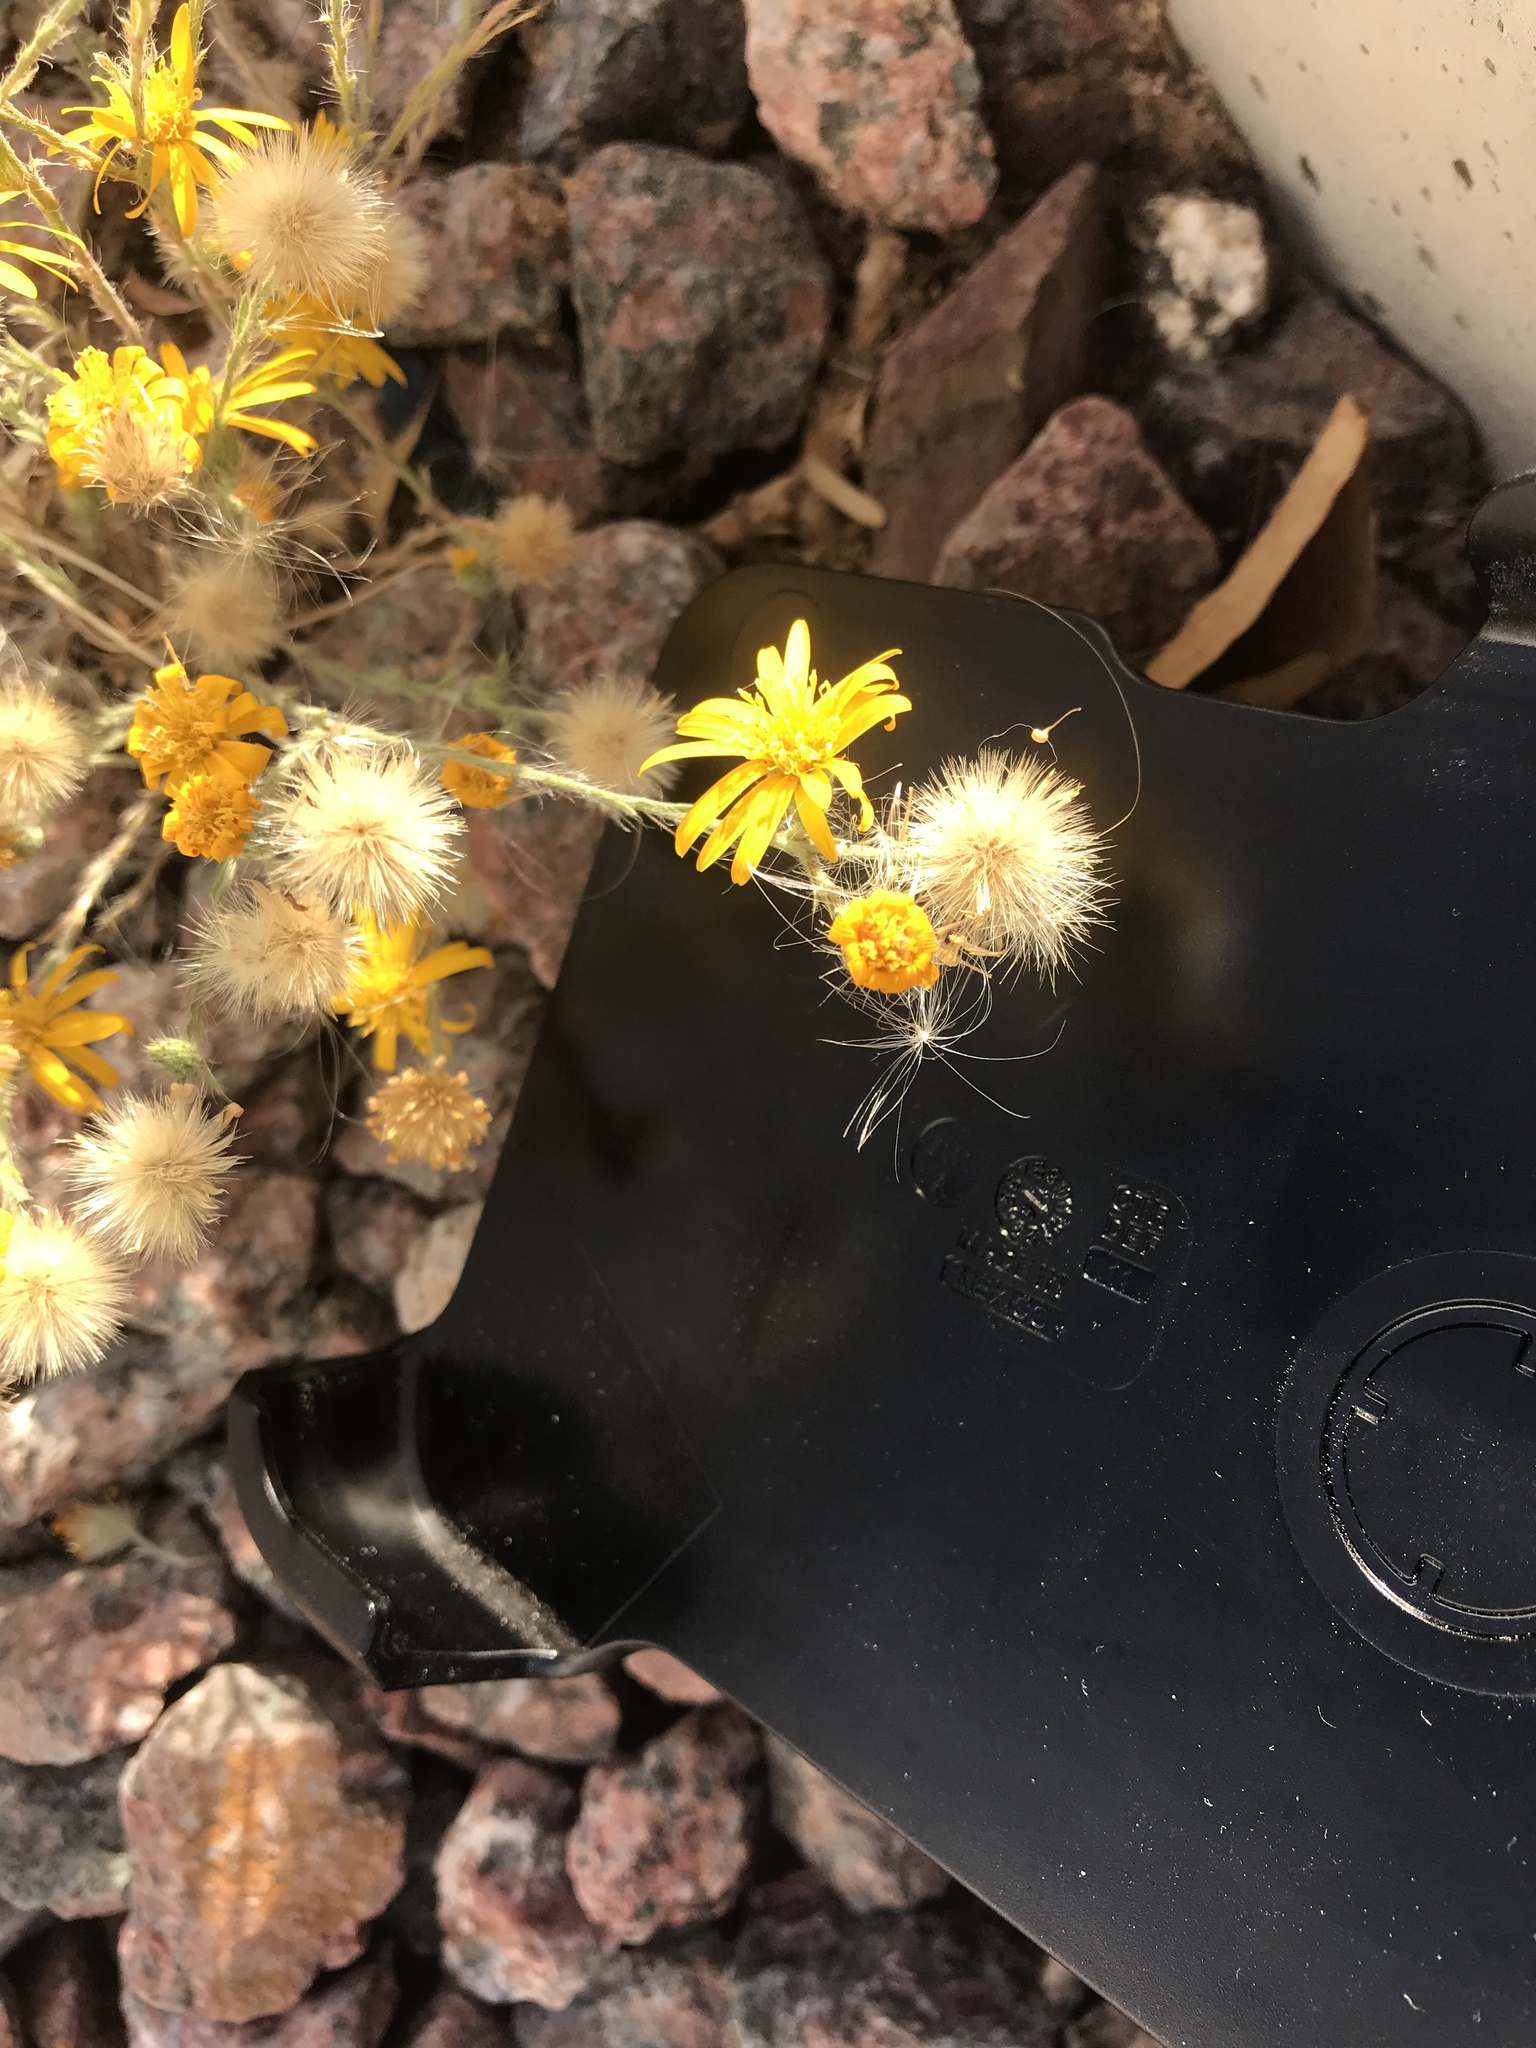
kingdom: Plantae
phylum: Tracheophyta
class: Magnoliopsida
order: Asterales
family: Asteraceae
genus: Xanthisma
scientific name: Xanthisma gracile
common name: Slender goldenweed
